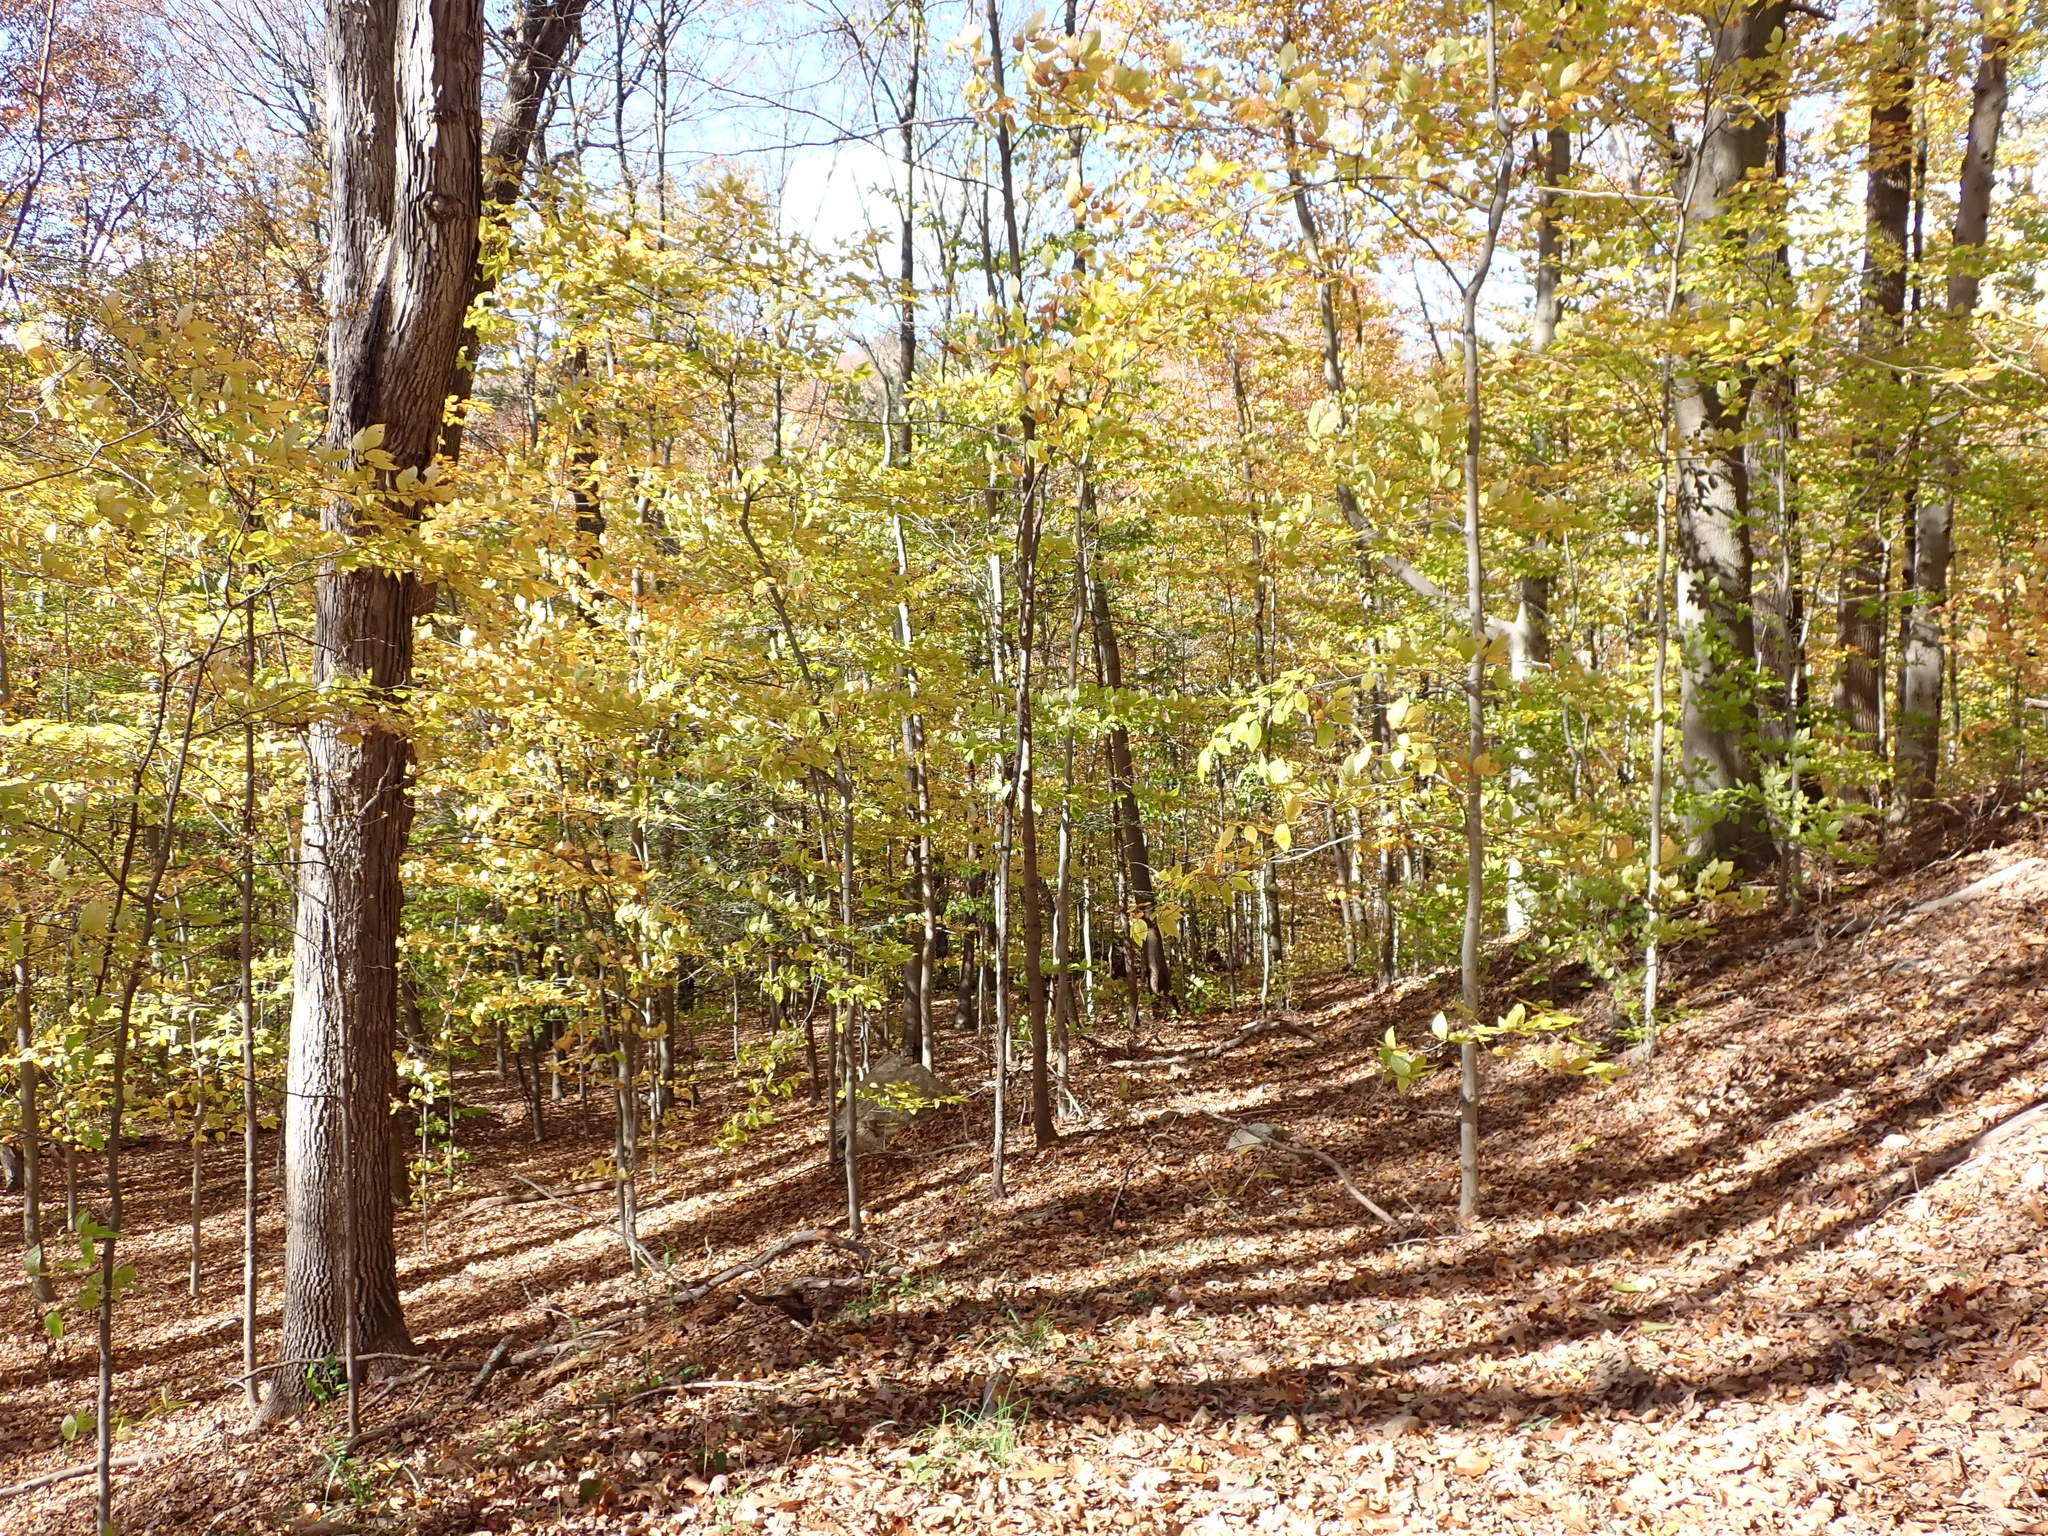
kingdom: Plantae
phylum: Tracheophyta
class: Magnoliopsida
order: Fagales
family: Fagaceae
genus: Fagus
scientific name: Fagus grandifolia
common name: American beech
